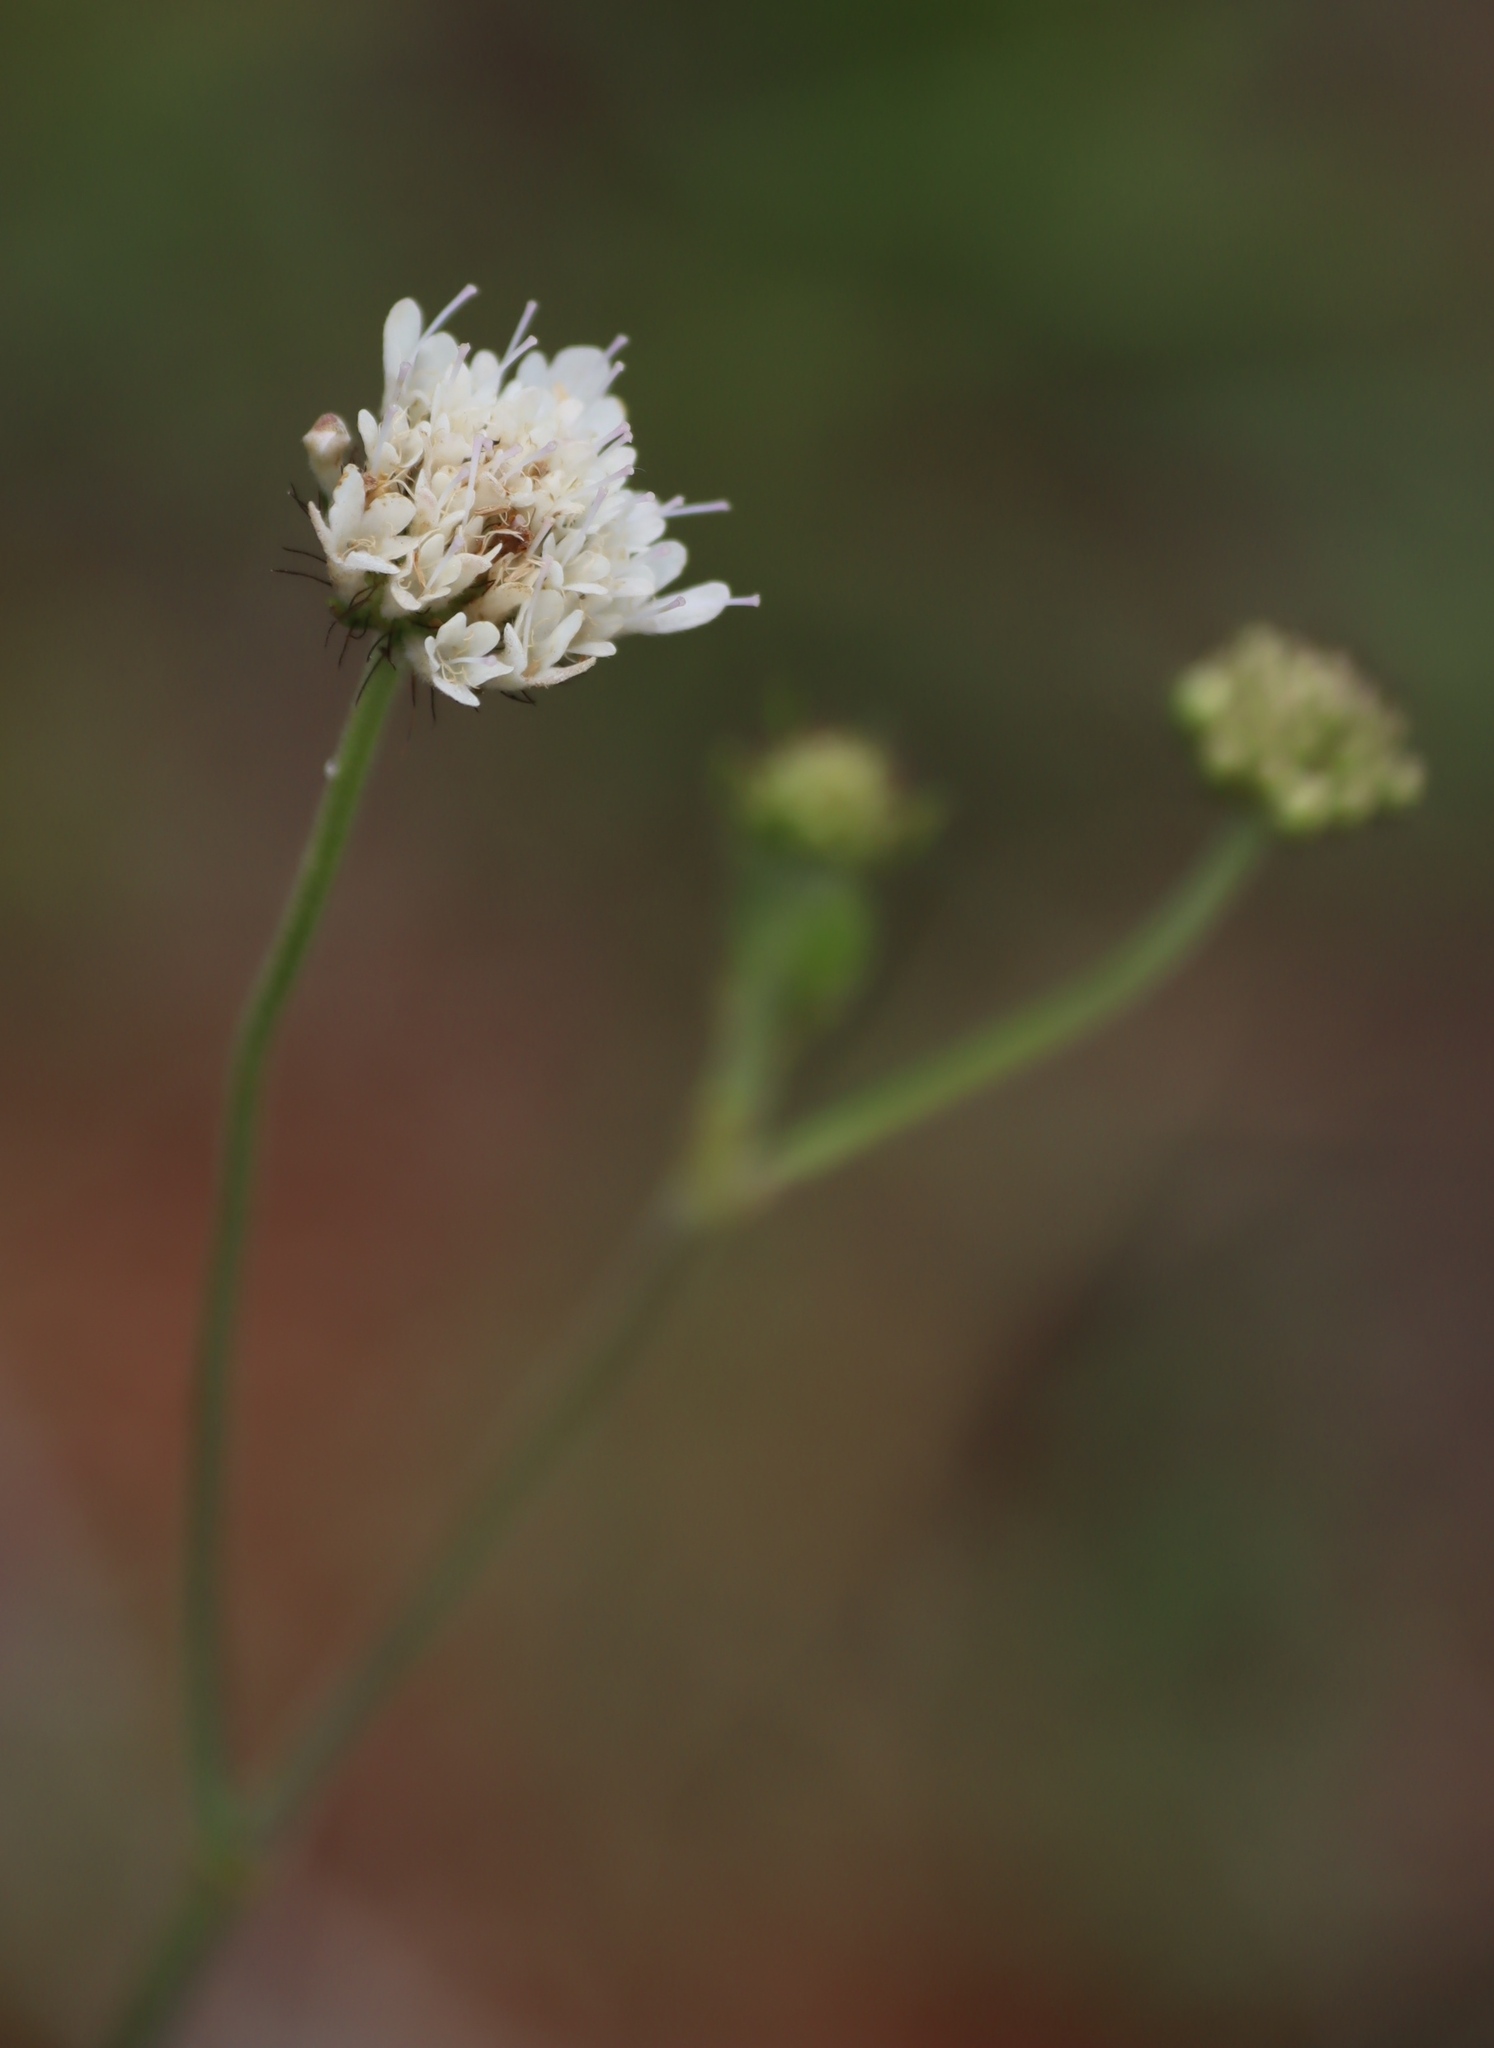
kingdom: Plantae
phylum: Tracheophyta
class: Magnoliopsida
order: Dipsacales
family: Caprifoliaceae
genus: Scabiosa
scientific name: Scabiosa columbaria
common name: Small scabious
